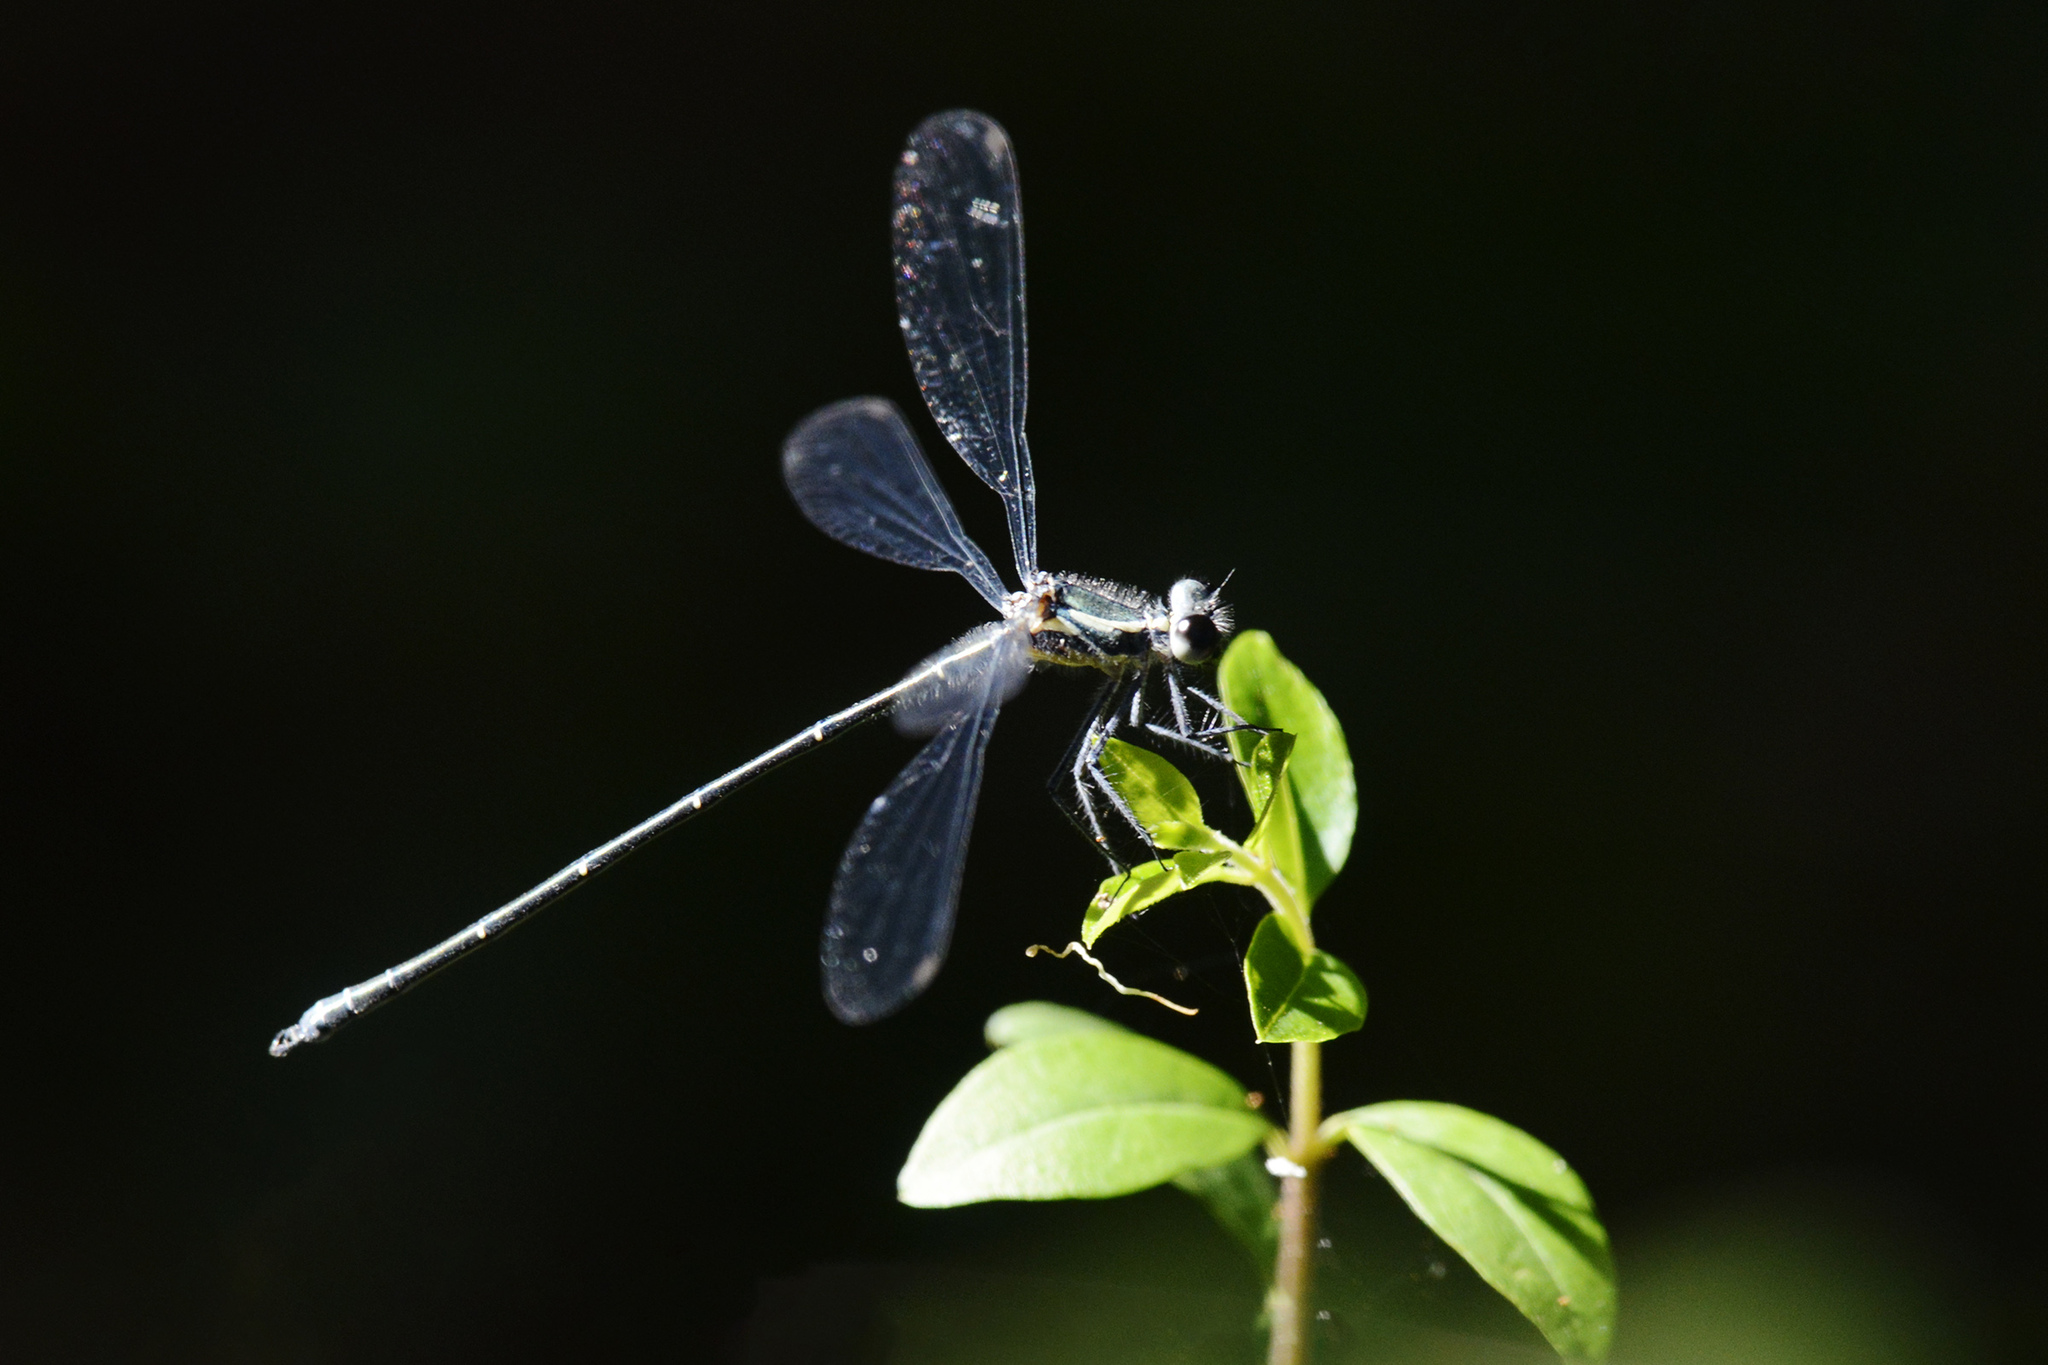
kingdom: Animalia
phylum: Arthropoda
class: Insecta
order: Odonata
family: Argiolestidae
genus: Austroargiolestes
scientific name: Austroargiolestes icteromelas
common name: Common flatwing
